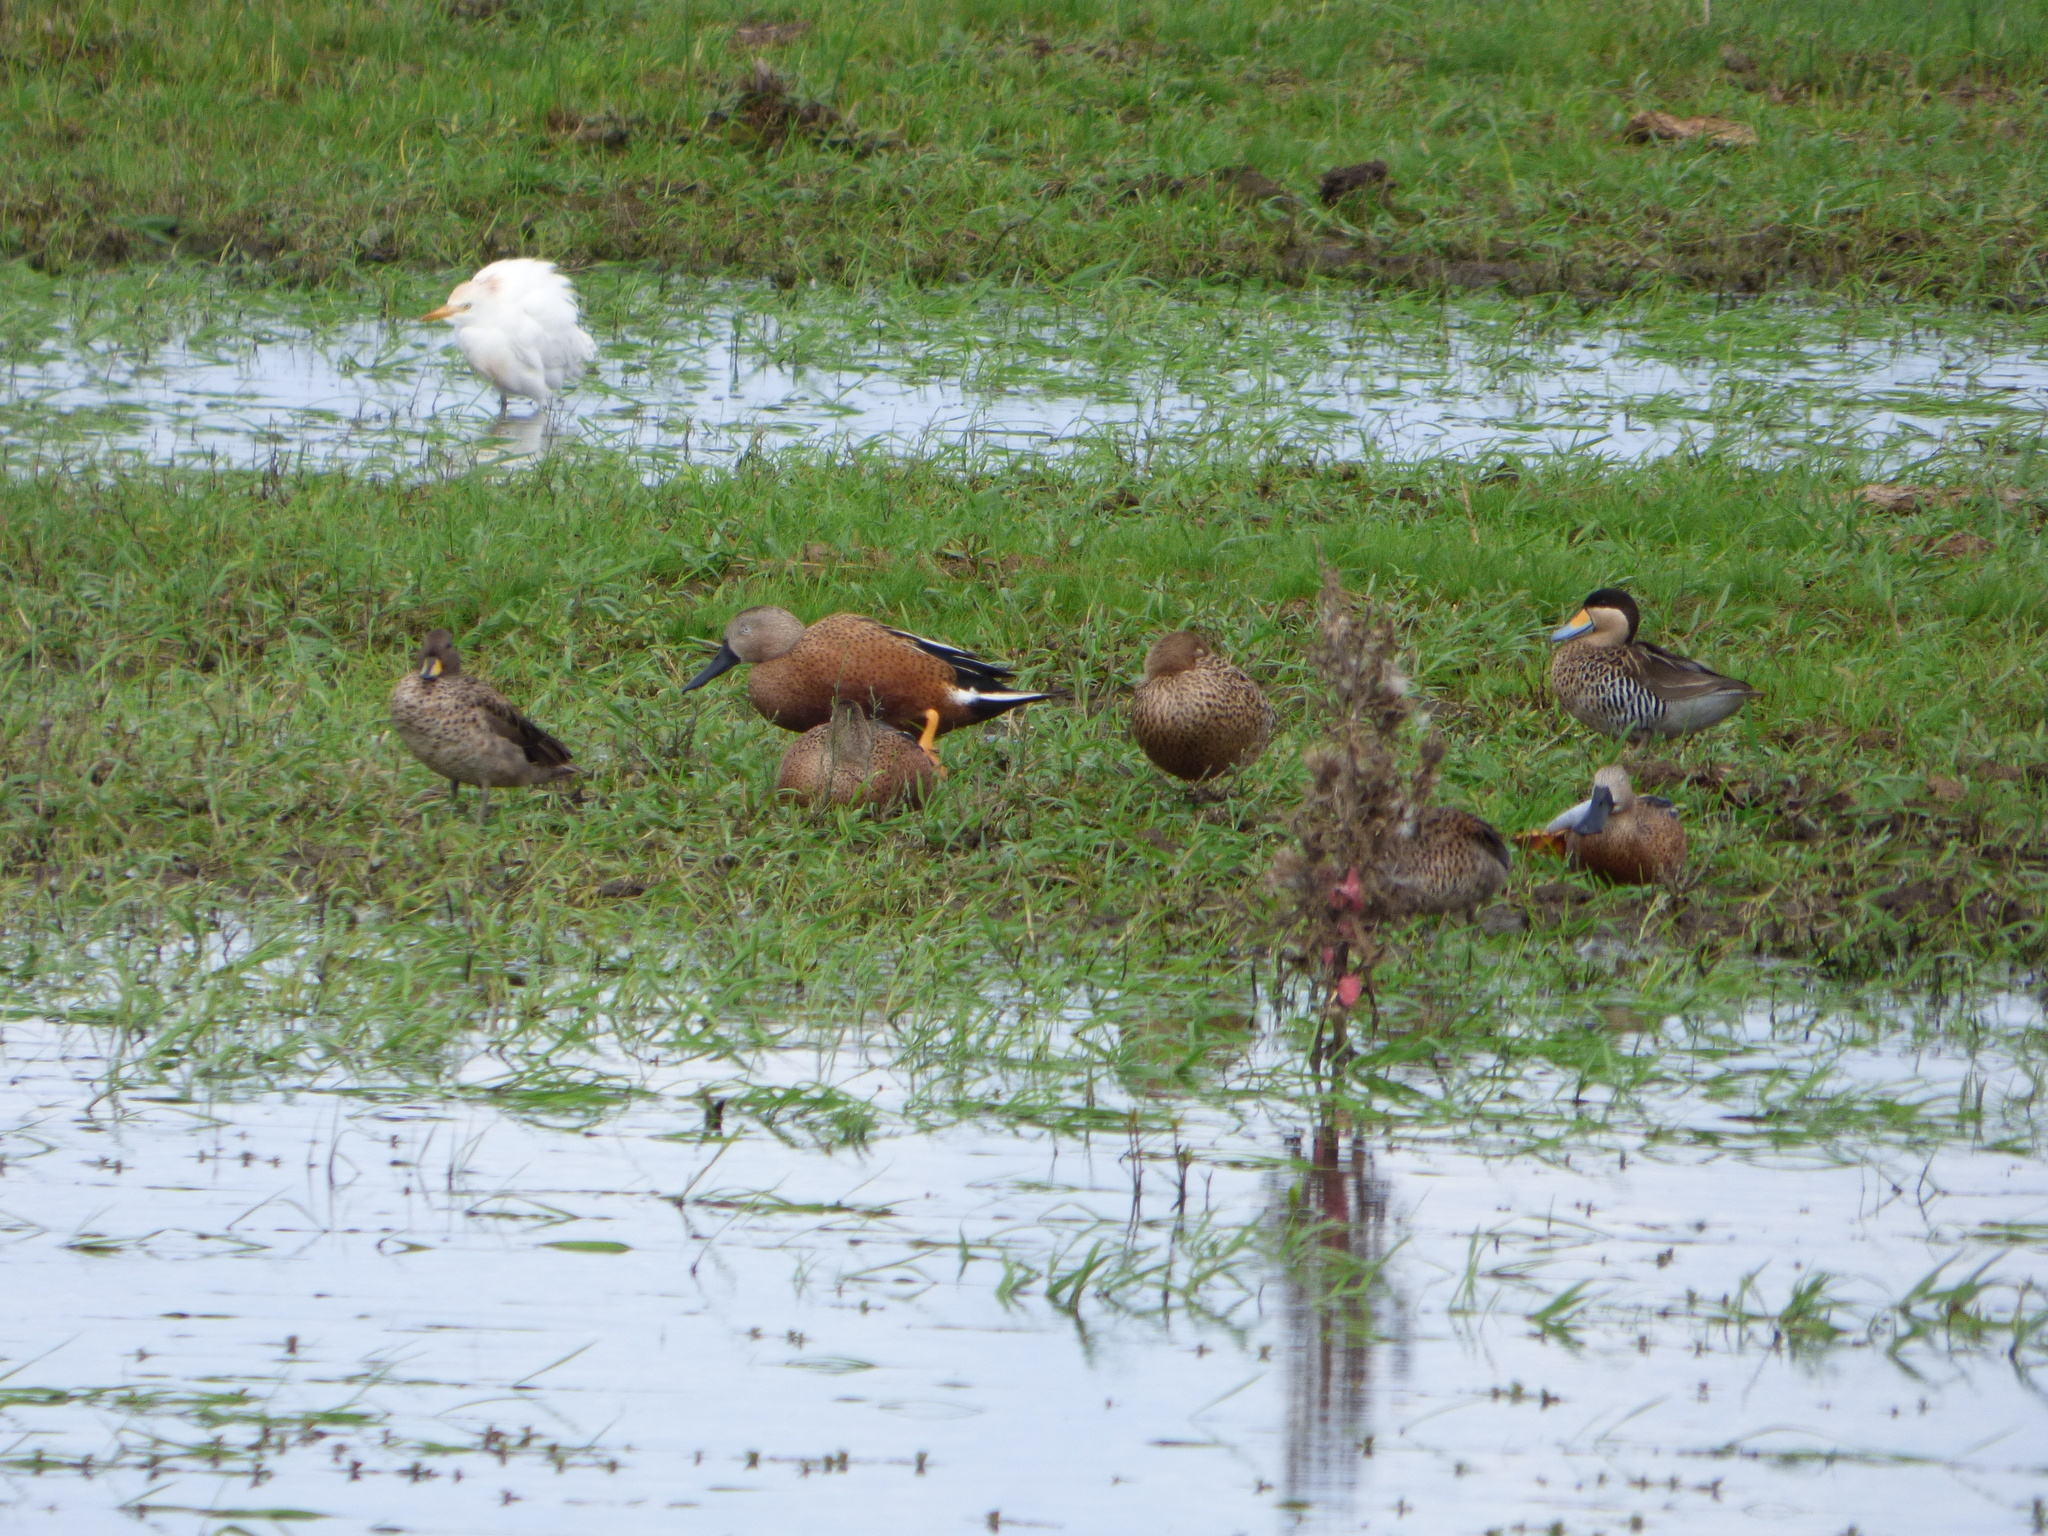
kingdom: Animalia
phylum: Chordata
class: Aves
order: Anseriformes
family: Anatidae
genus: Spatula
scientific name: Spatula platalea
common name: Red shoveler
